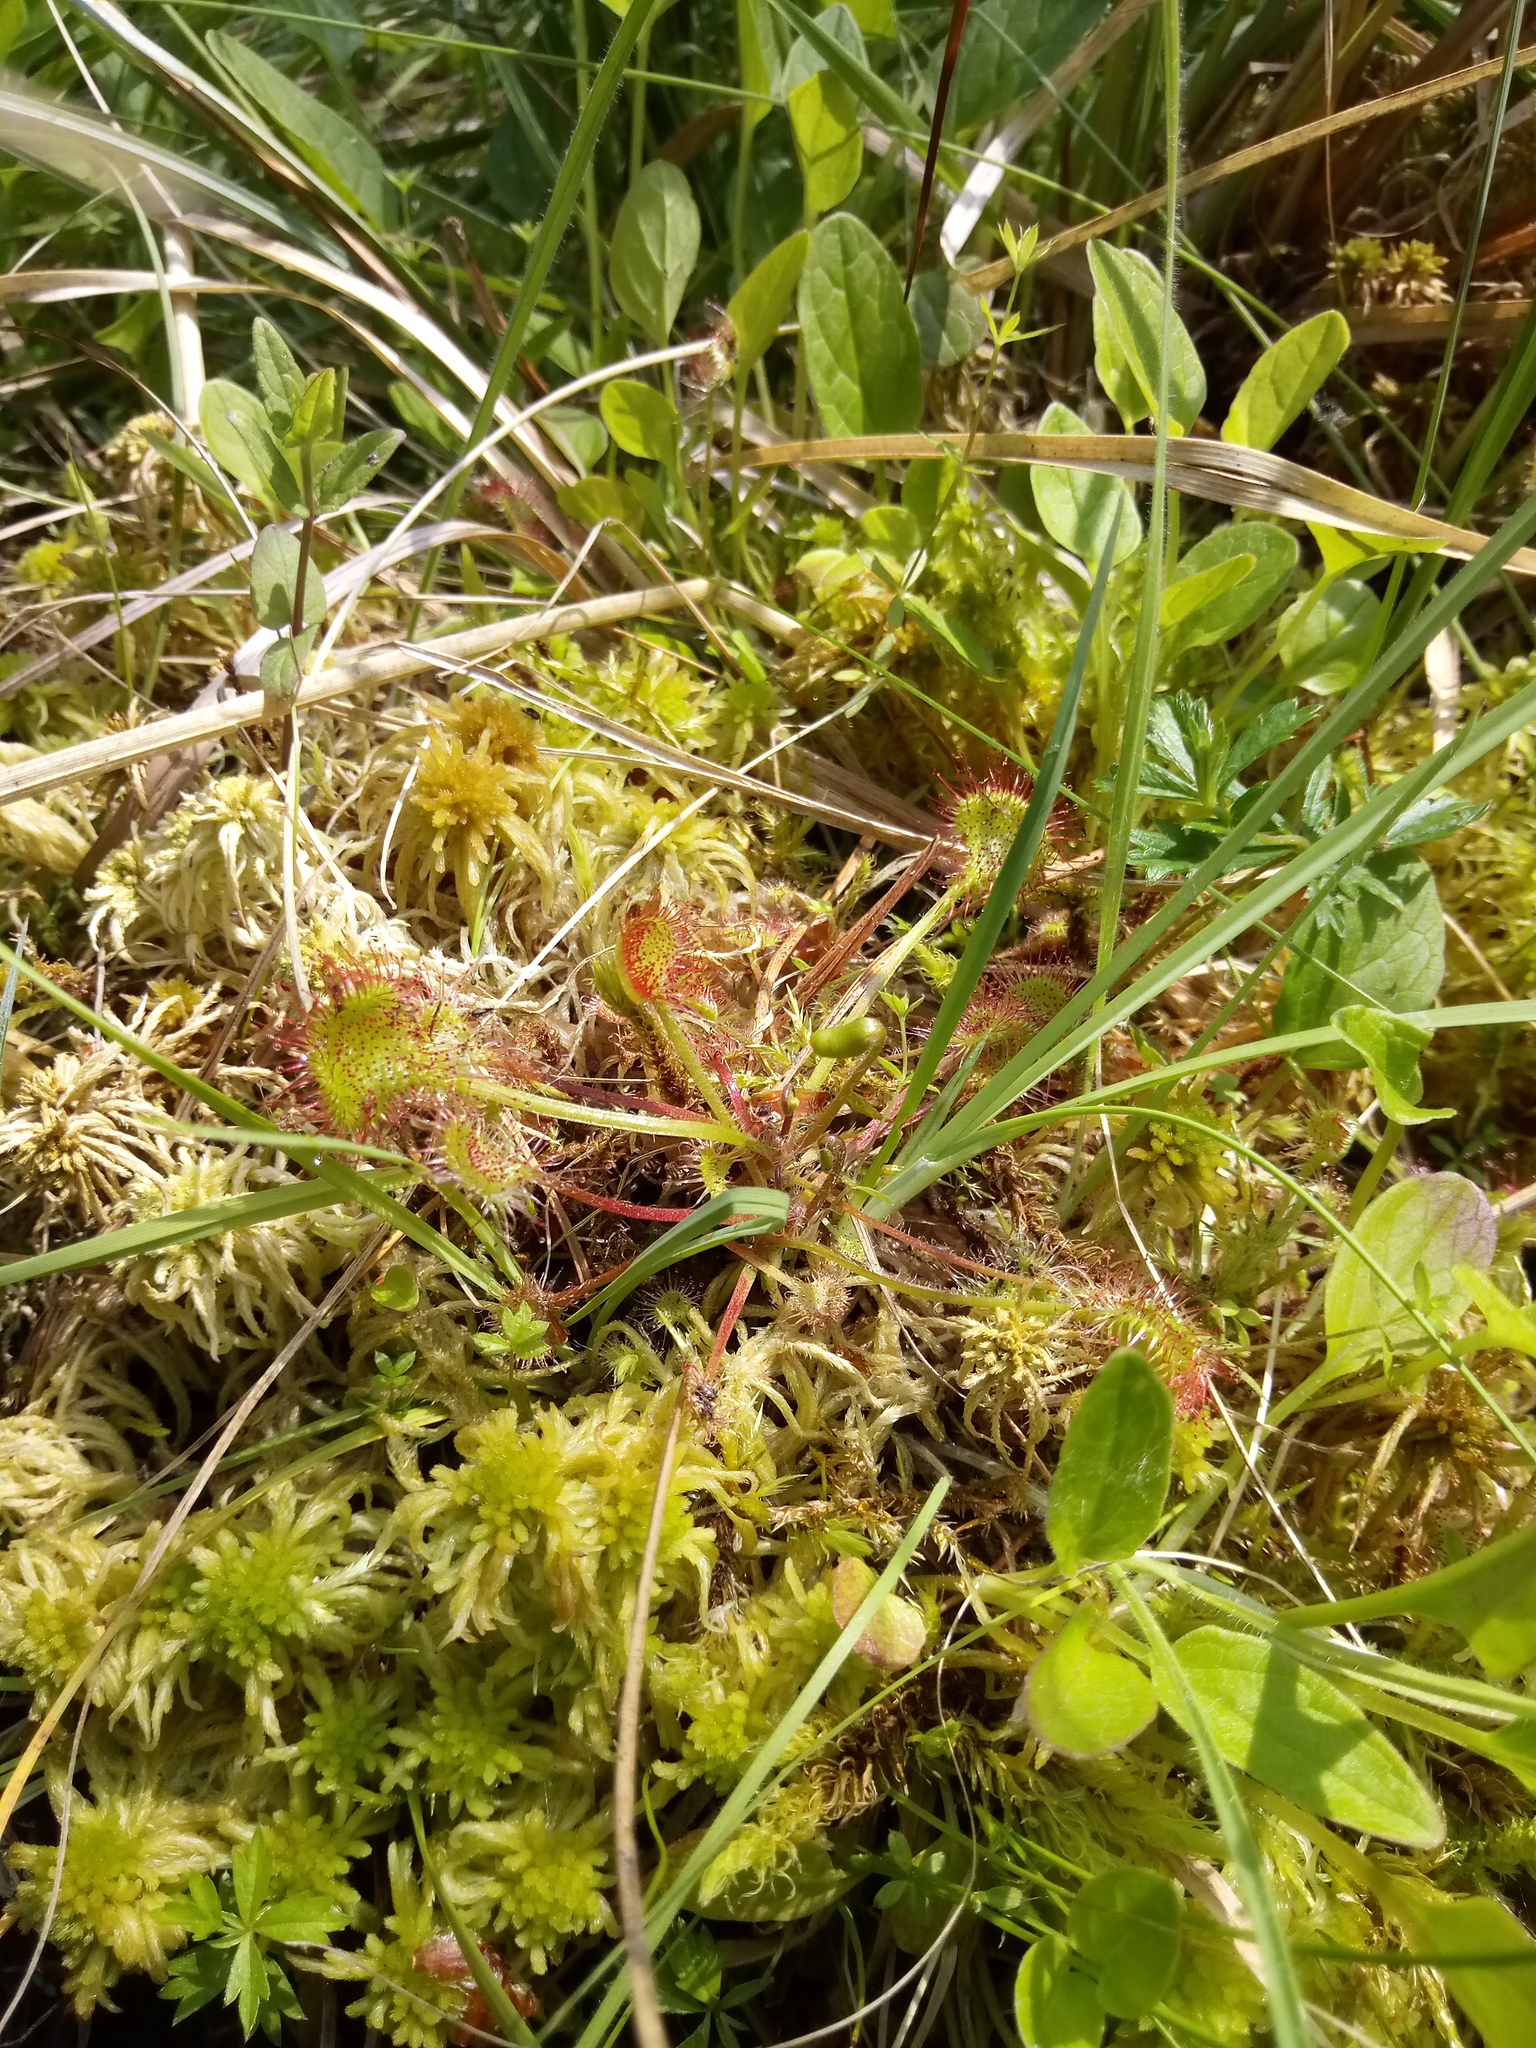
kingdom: Plantae
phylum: Tracheophyta
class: Magnoliopsida
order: Caryophyllales
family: Droseraceae
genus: Drosera
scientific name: Drosera rotundifolia
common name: Round-leaved sundew
